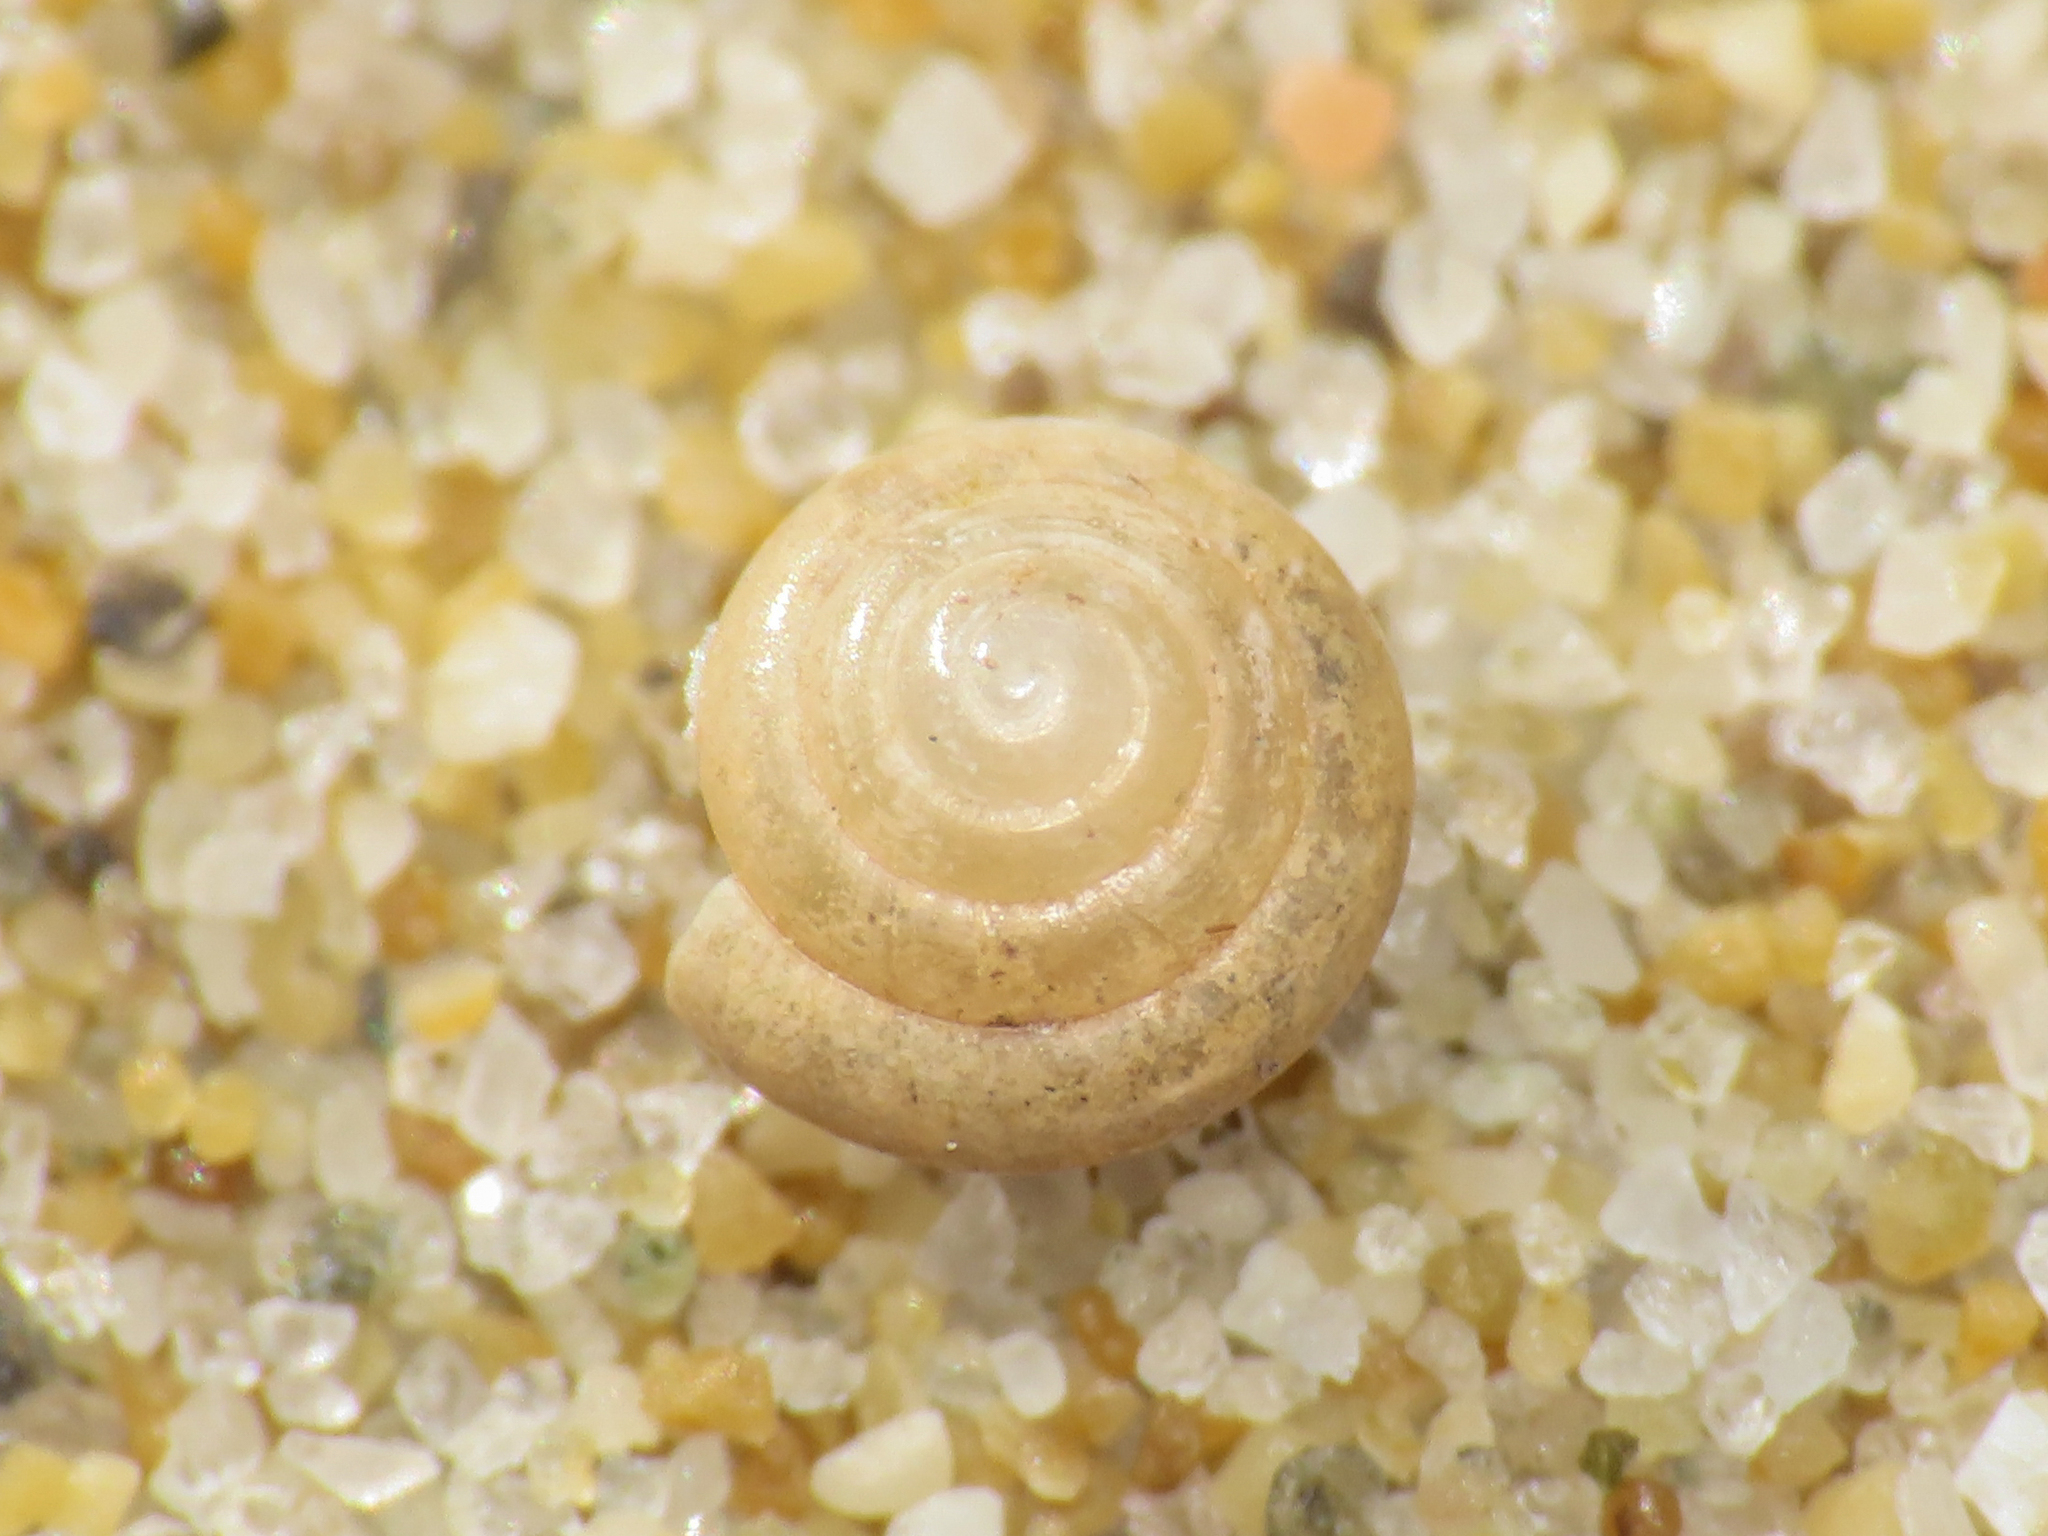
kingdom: Animalia
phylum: Mollusca
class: Gastropoda
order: Stylommatophora
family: Euconulidae
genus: Euconulus
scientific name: Euconulus fulvus
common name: Tawny glass snail
